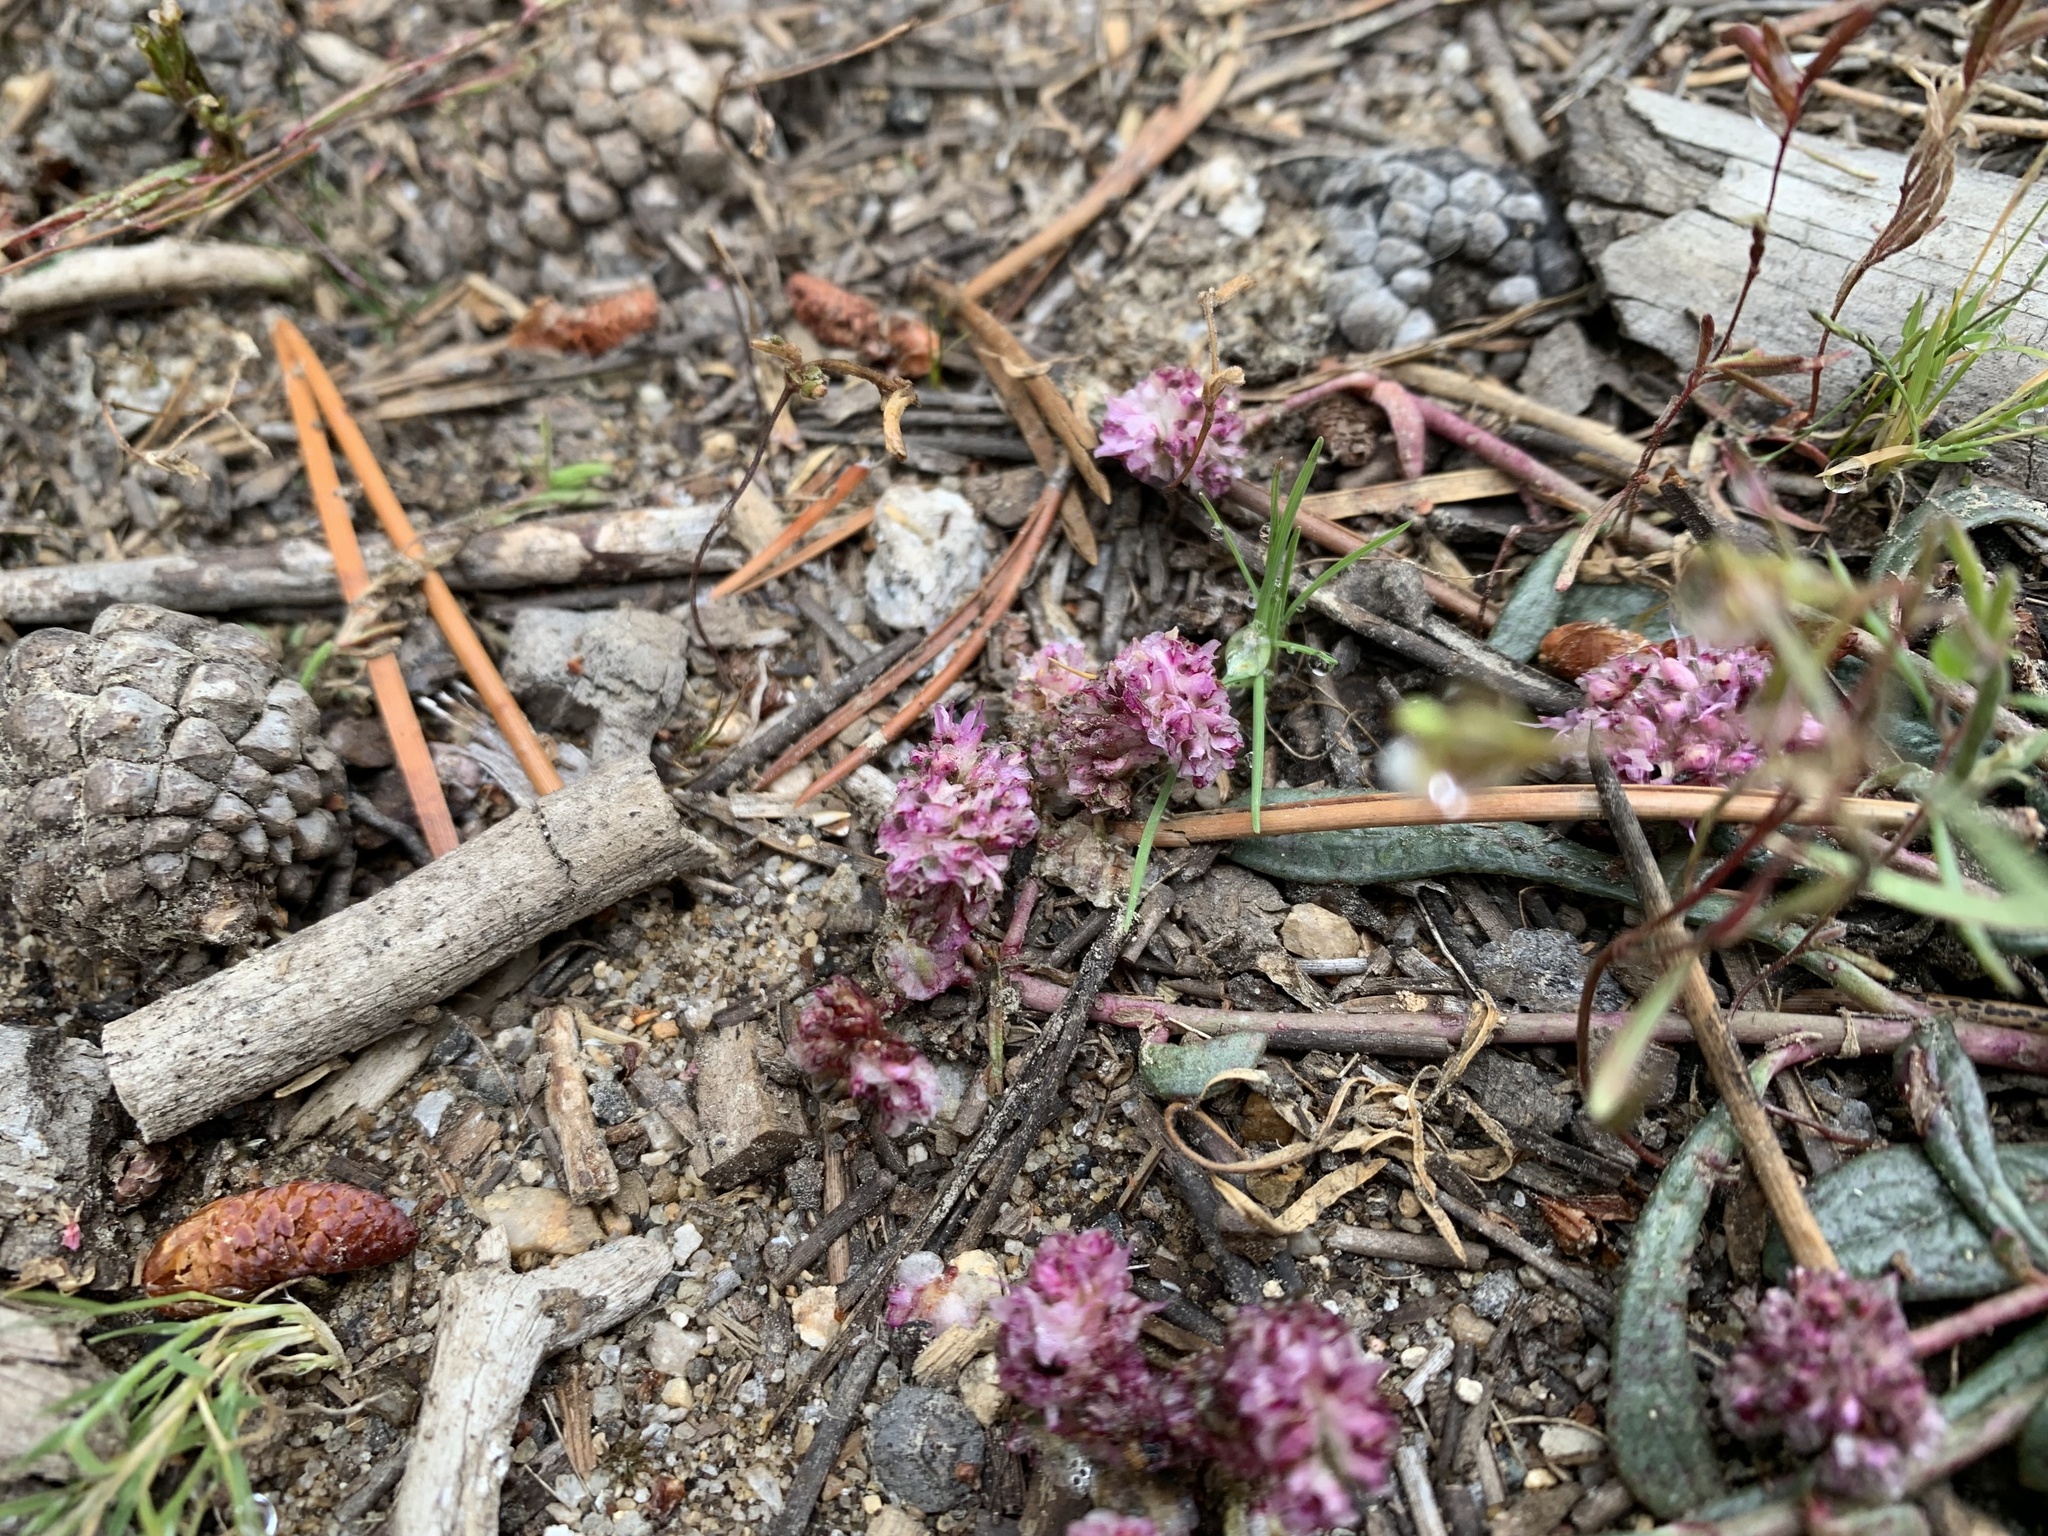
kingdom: Plantae
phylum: Tracheophyta
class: Magnoliopsida
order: Caryophyllales
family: Montiaceae
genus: Calyptridium
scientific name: Calyptridium monospermum
